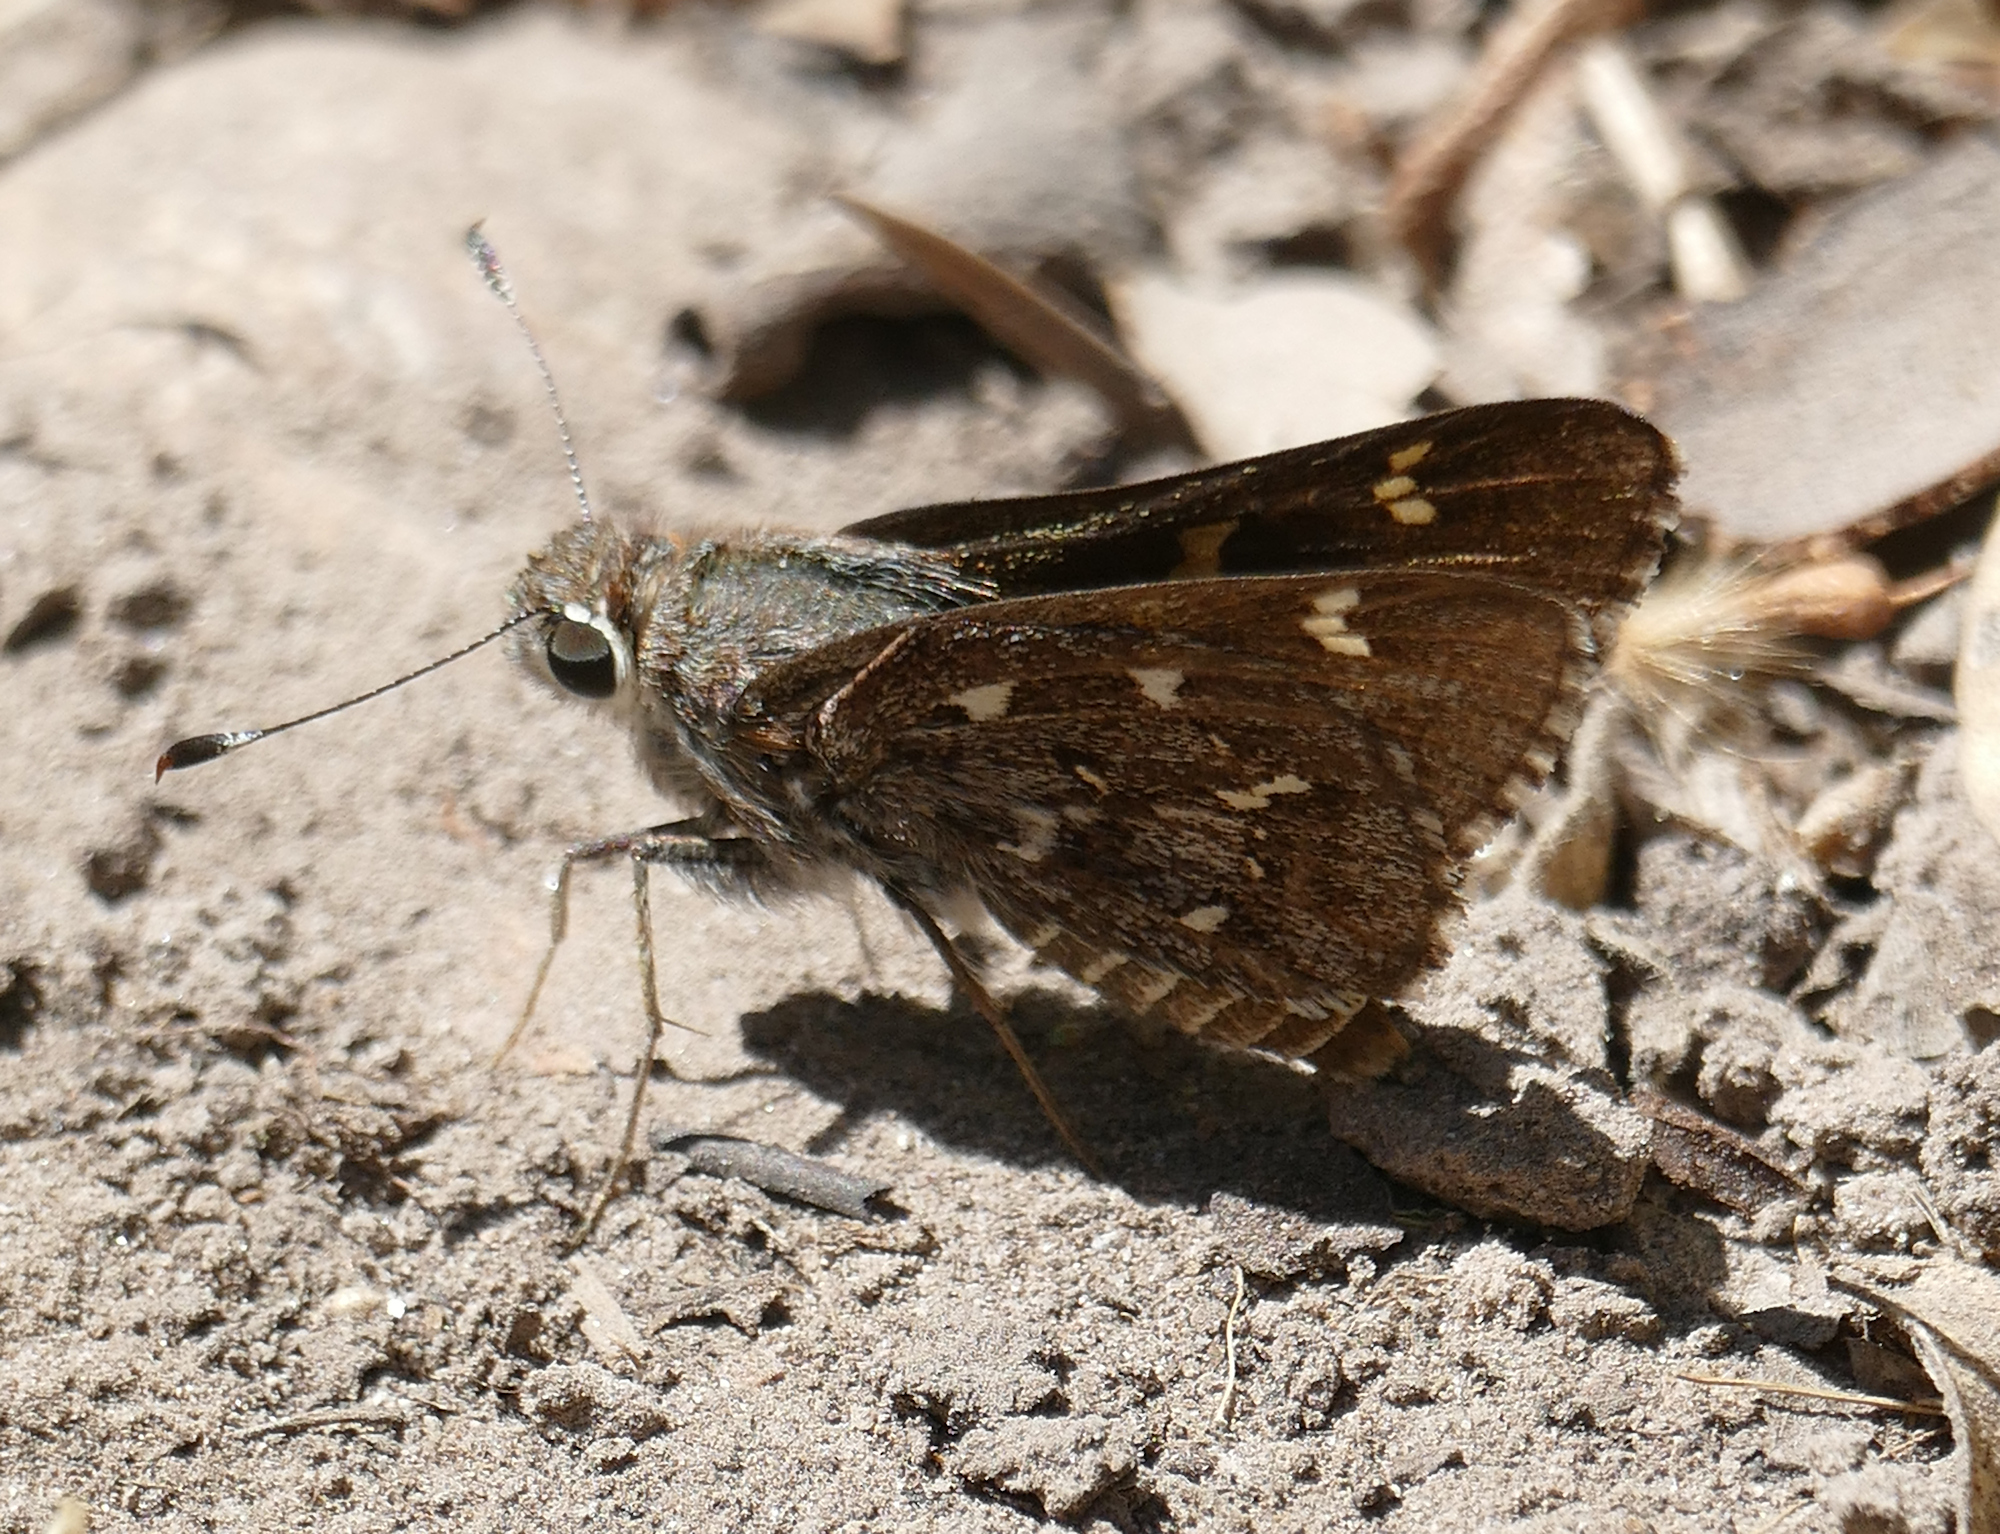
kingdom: Animalia
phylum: Arthropoda
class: Insecta
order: Lepidoptera
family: Hesperiidae
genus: Atrytonopsis
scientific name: Atrytonopsis python
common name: Python skipper
